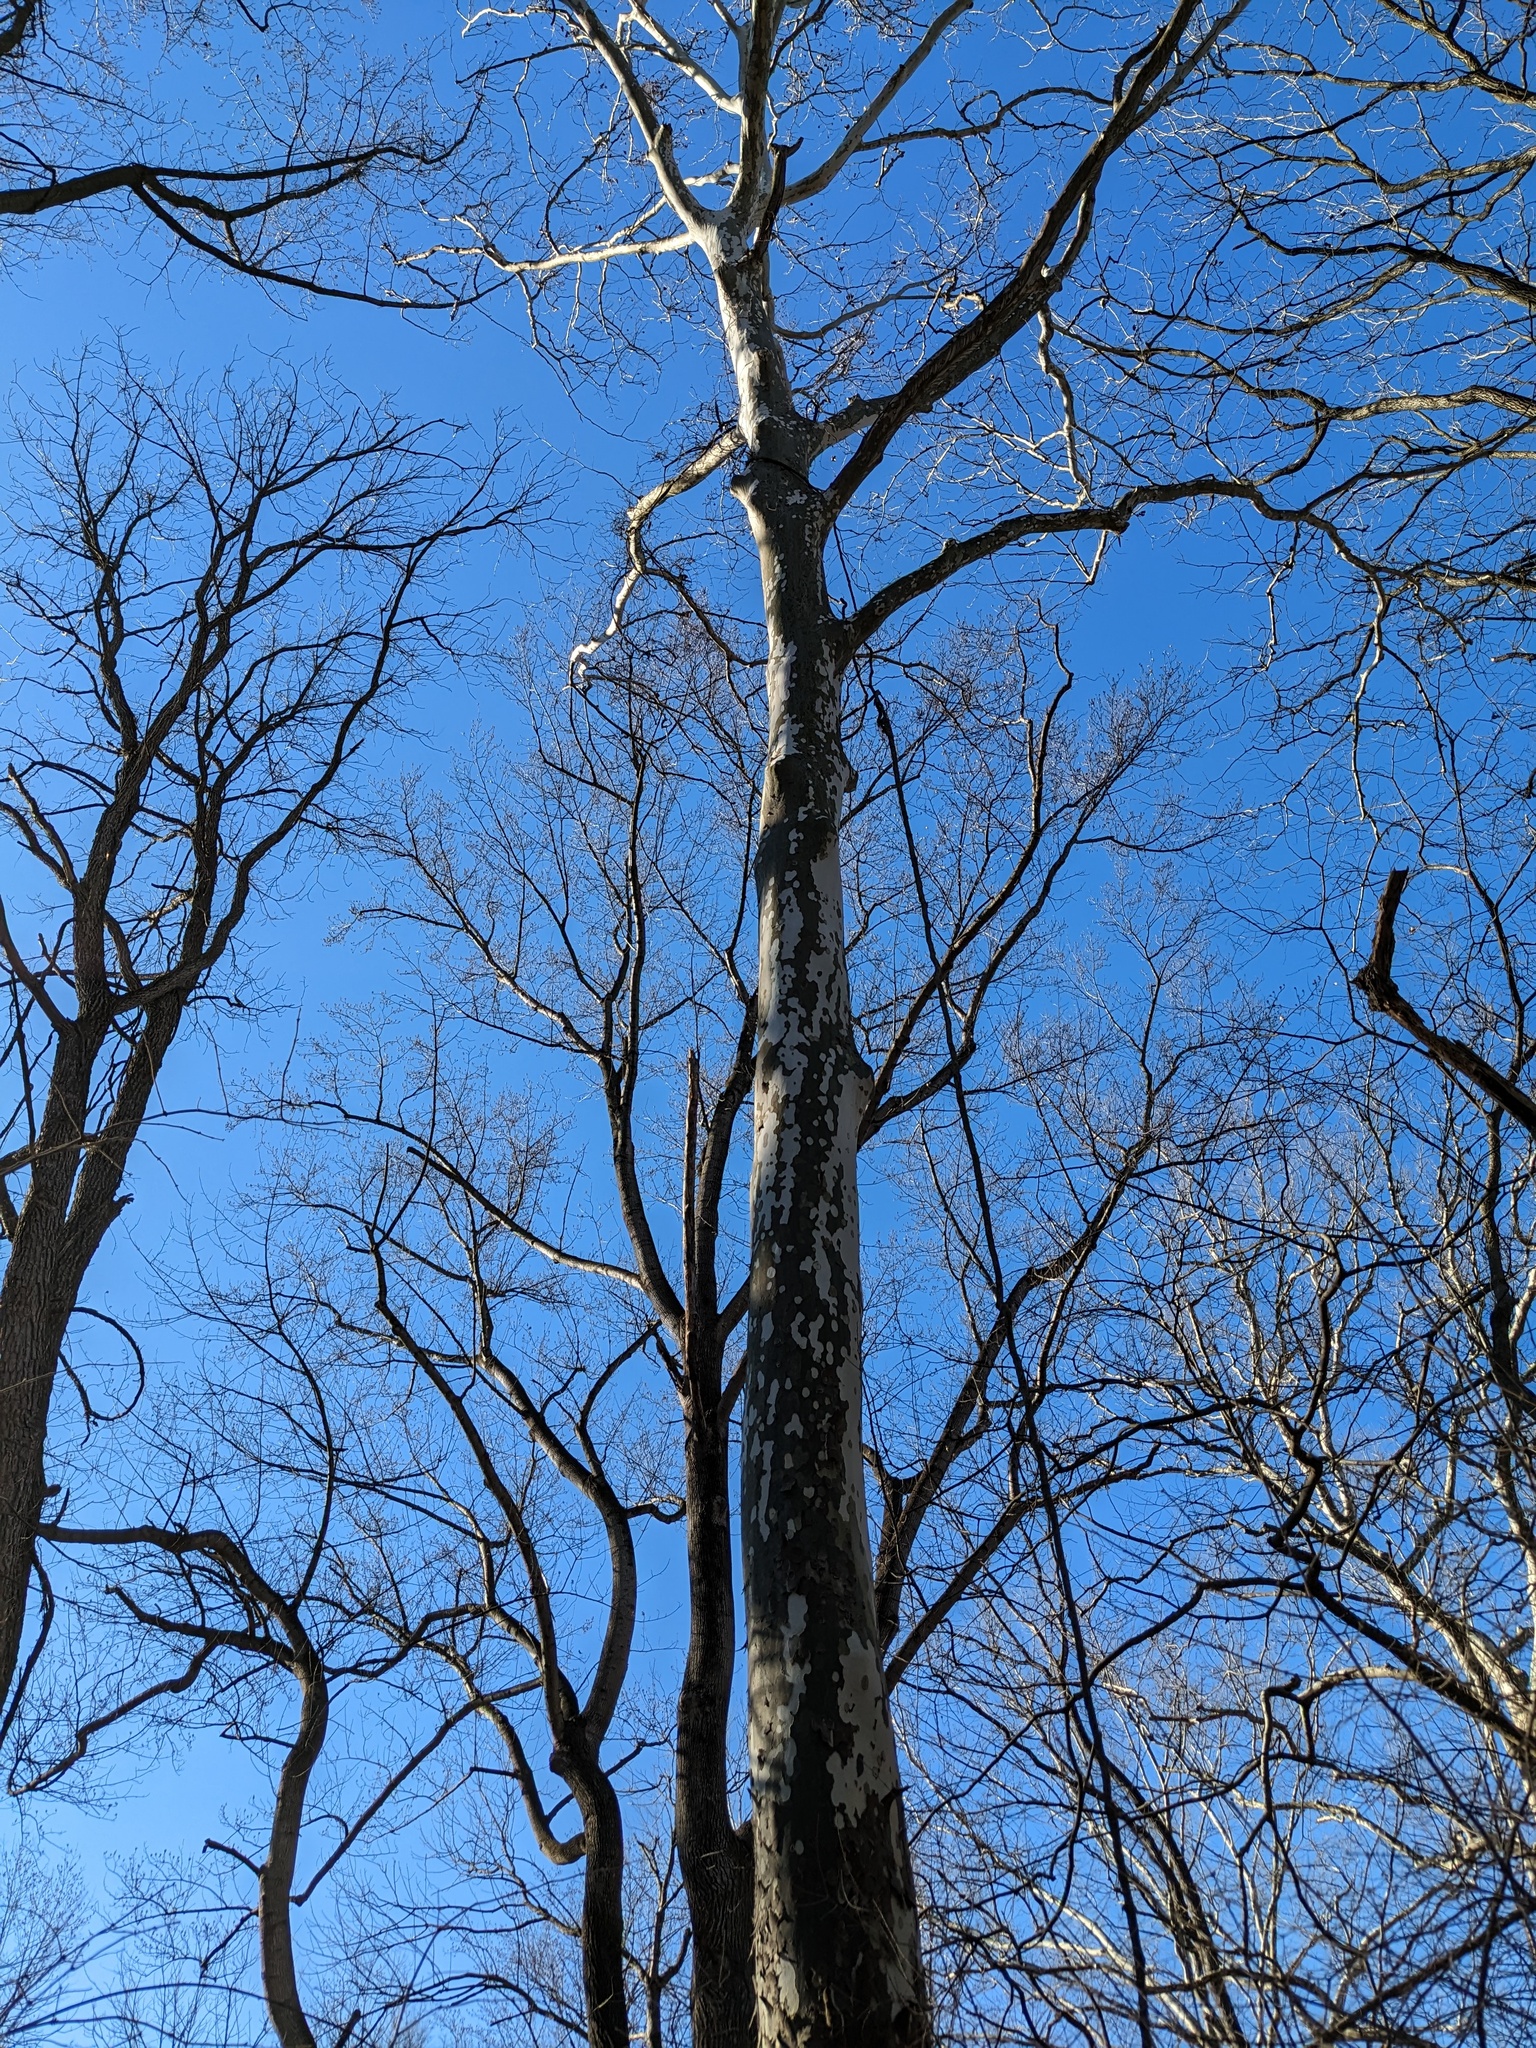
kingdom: Plantae
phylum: Tracheophyta
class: Magnoliopsida
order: Proteales
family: Platanaceae
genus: Platanus
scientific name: Platanus occidentalis
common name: American sycamore
